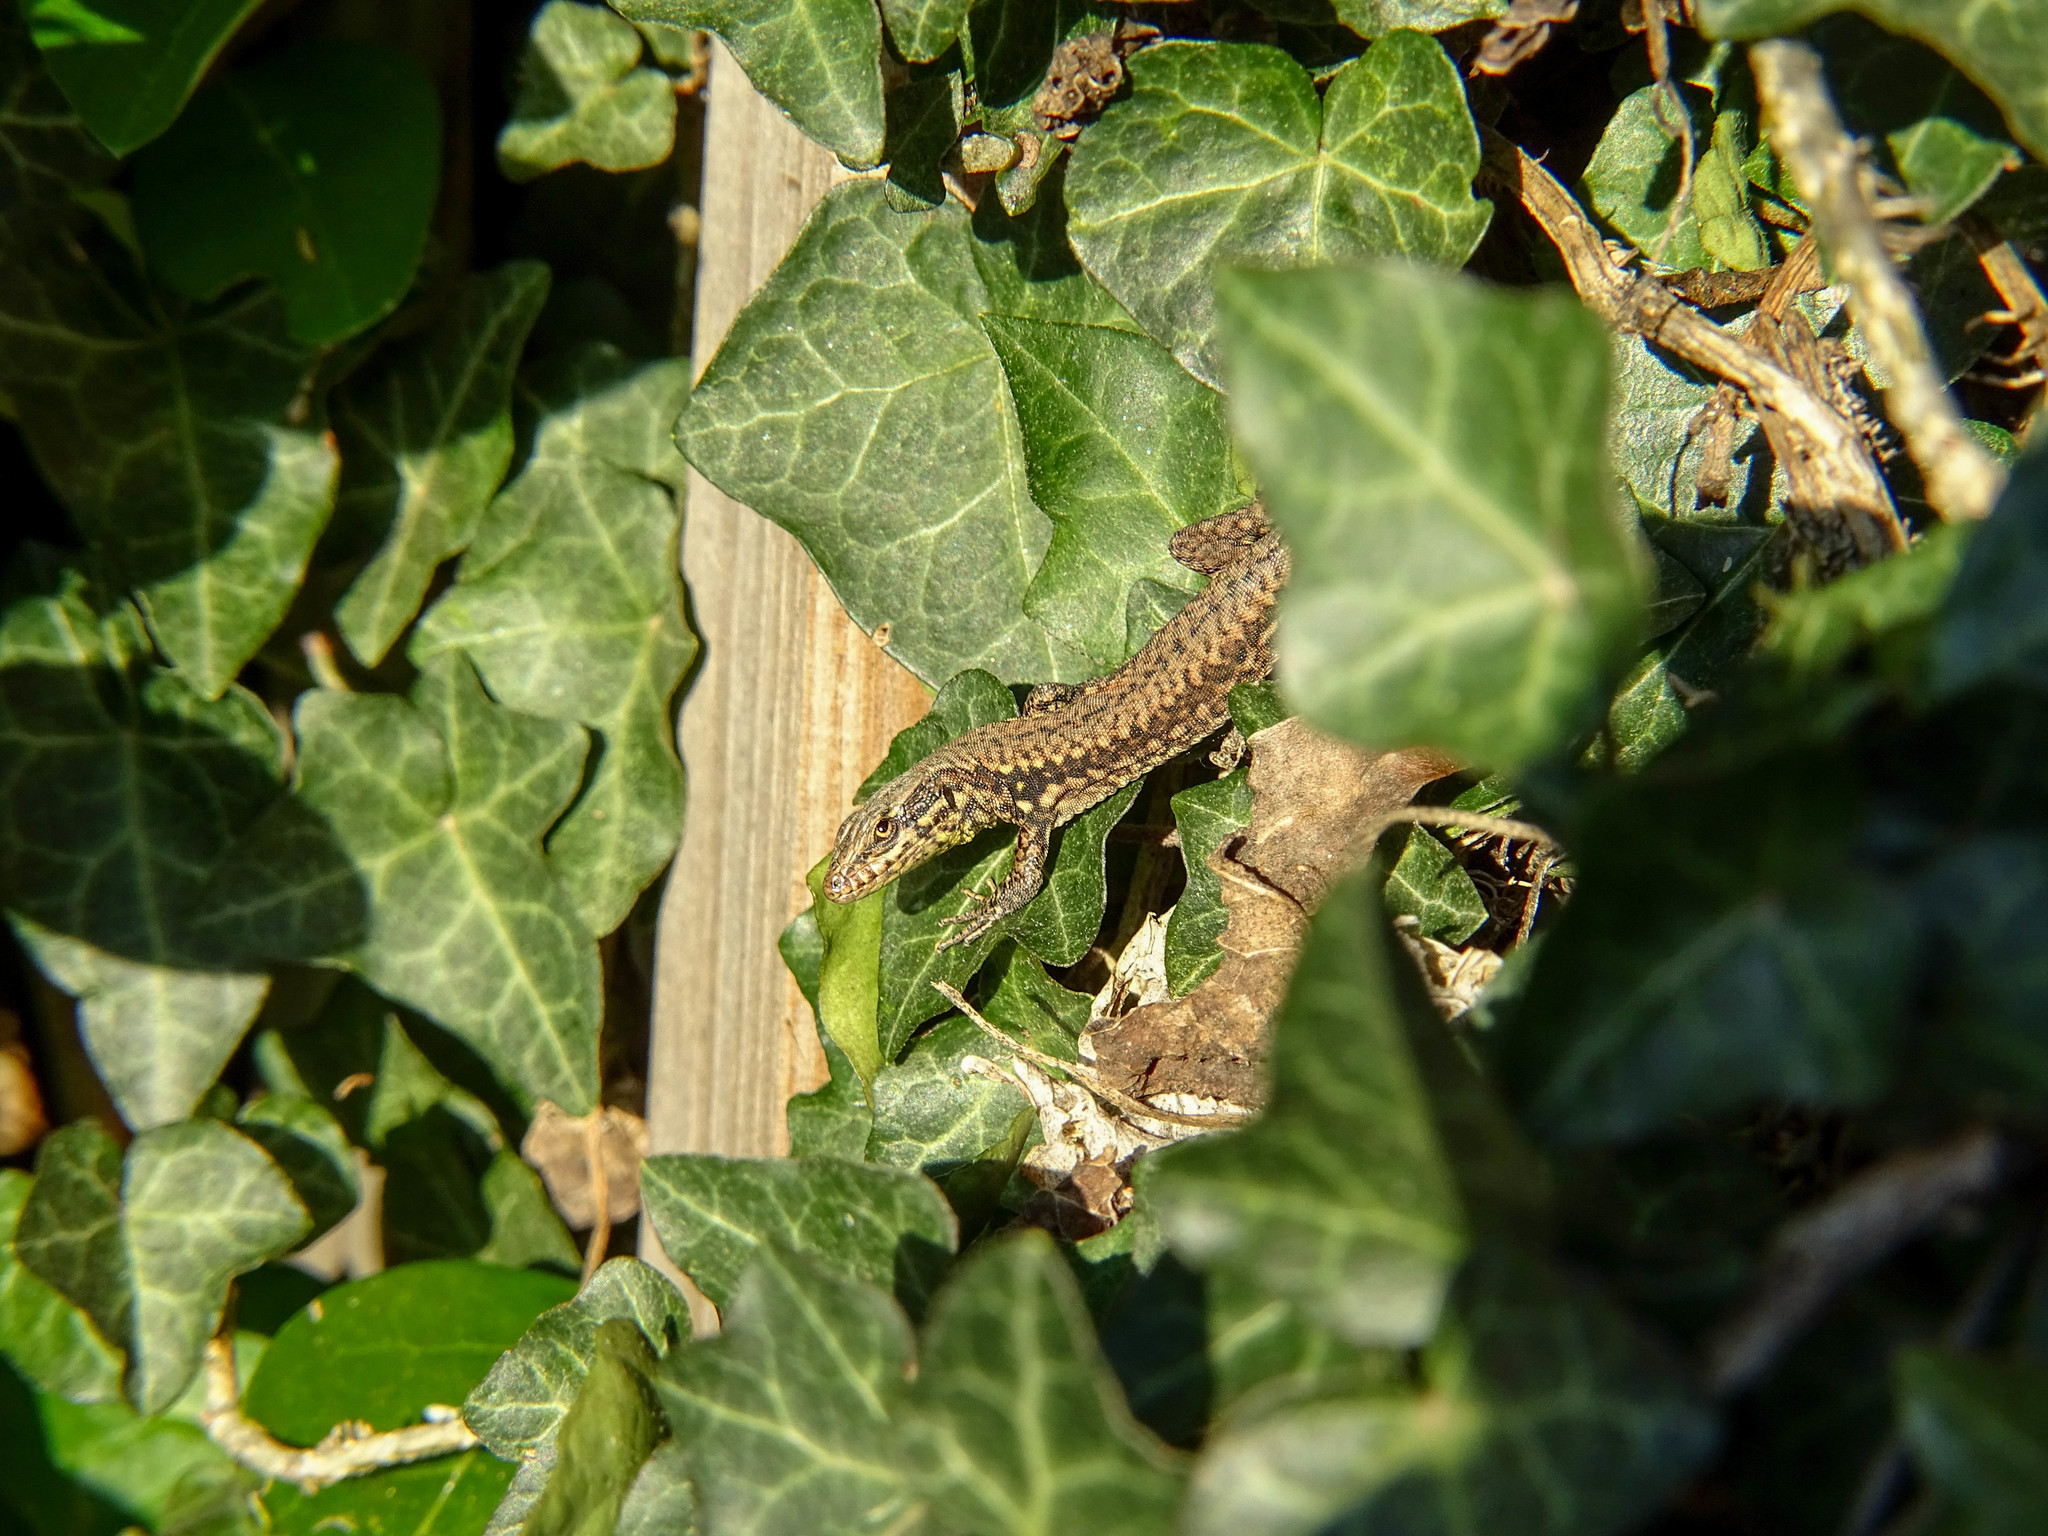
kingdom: Animalia
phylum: Chordata
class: Squamata
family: Lacertidae
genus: Podarcis
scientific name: Podarcis muralis
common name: Common wall lizard
